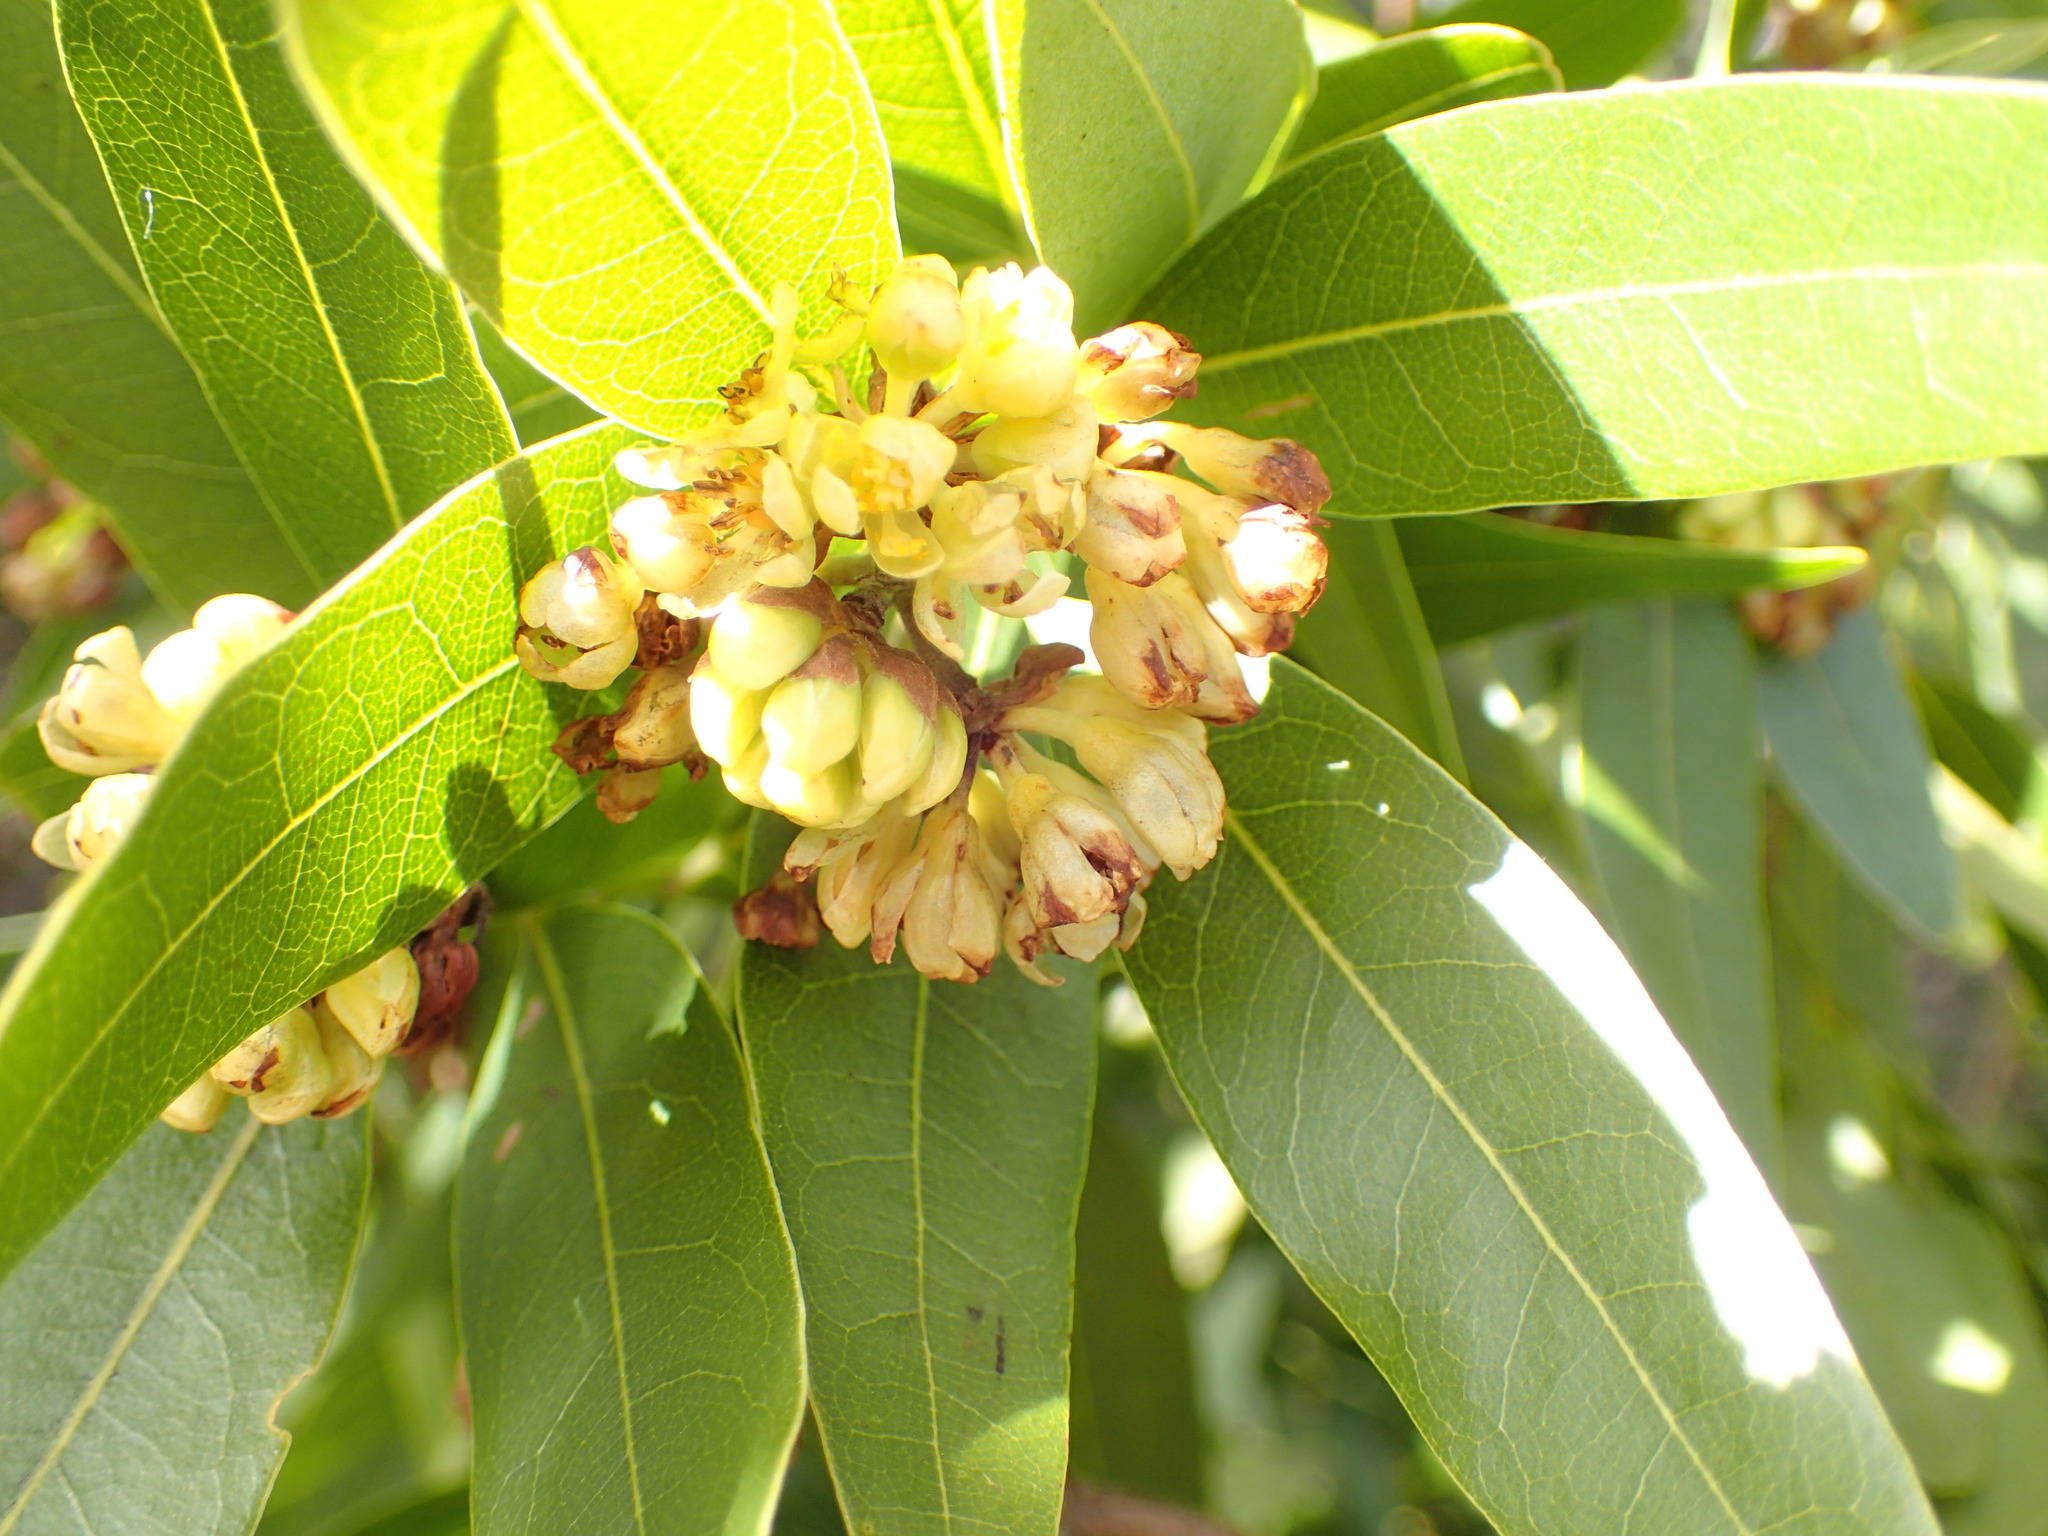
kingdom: Plantae
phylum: Tracheophyta
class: Magnoliopsida
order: Laurales
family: Lauraceae
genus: Umbellularia
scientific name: Umbellularia californica
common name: California bay
